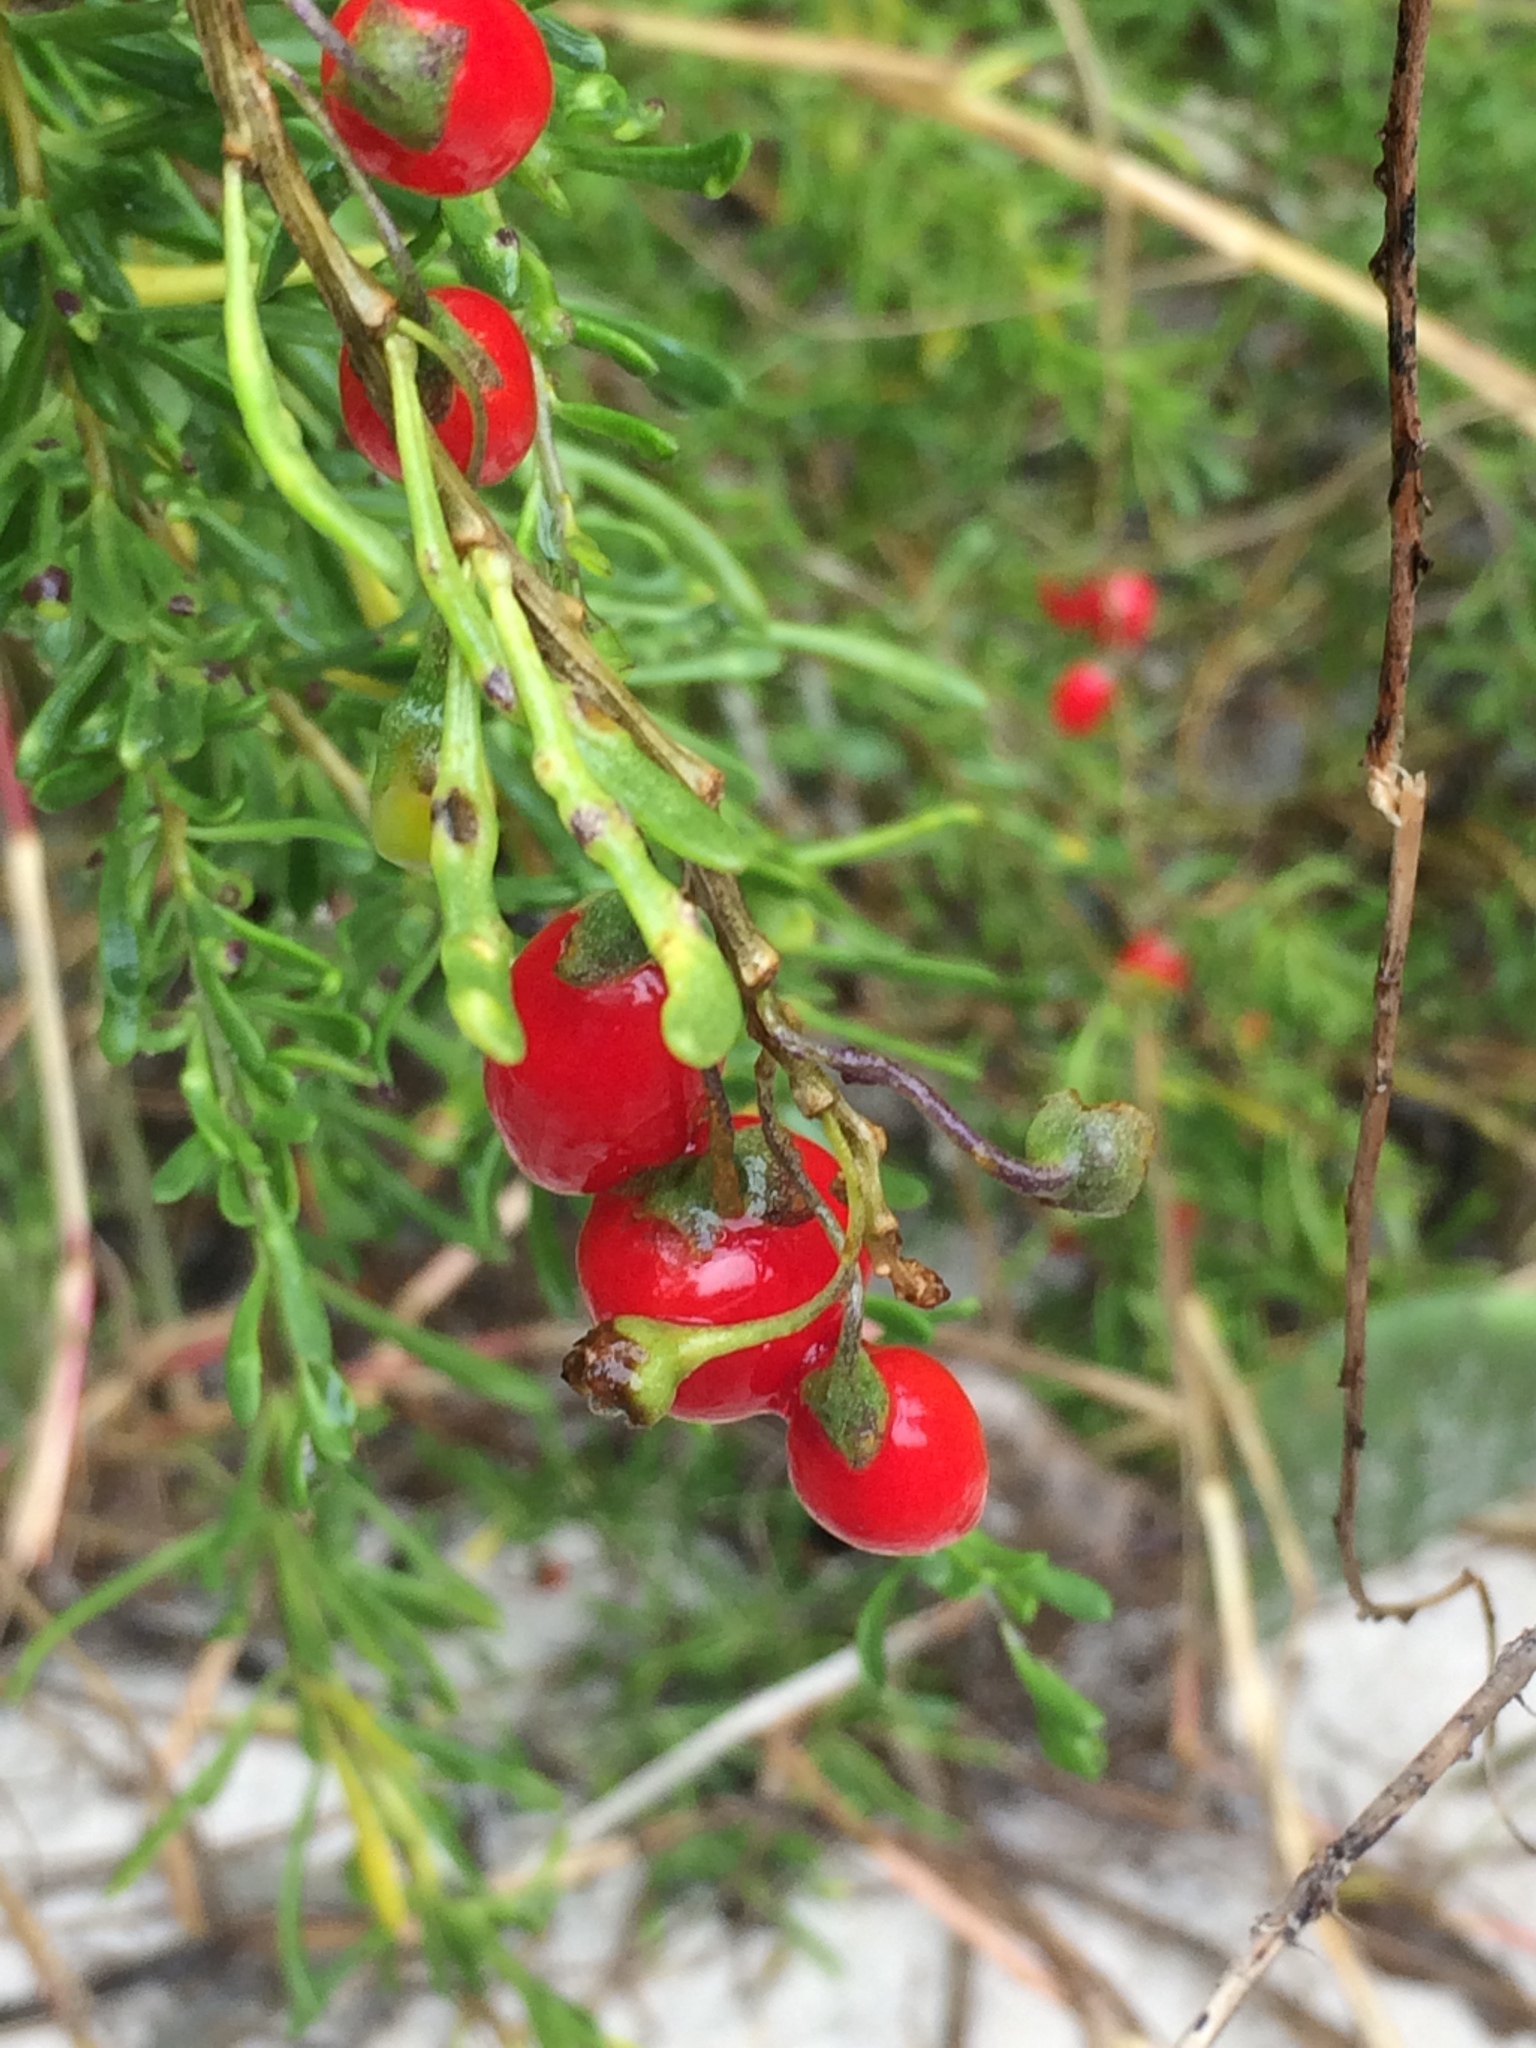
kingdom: Plantae
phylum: Tracheophyta
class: Magnoliopsida
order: Solanales
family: Solanaceae
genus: Lycium
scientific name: Lycium carolinianum
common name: Christmasberry
